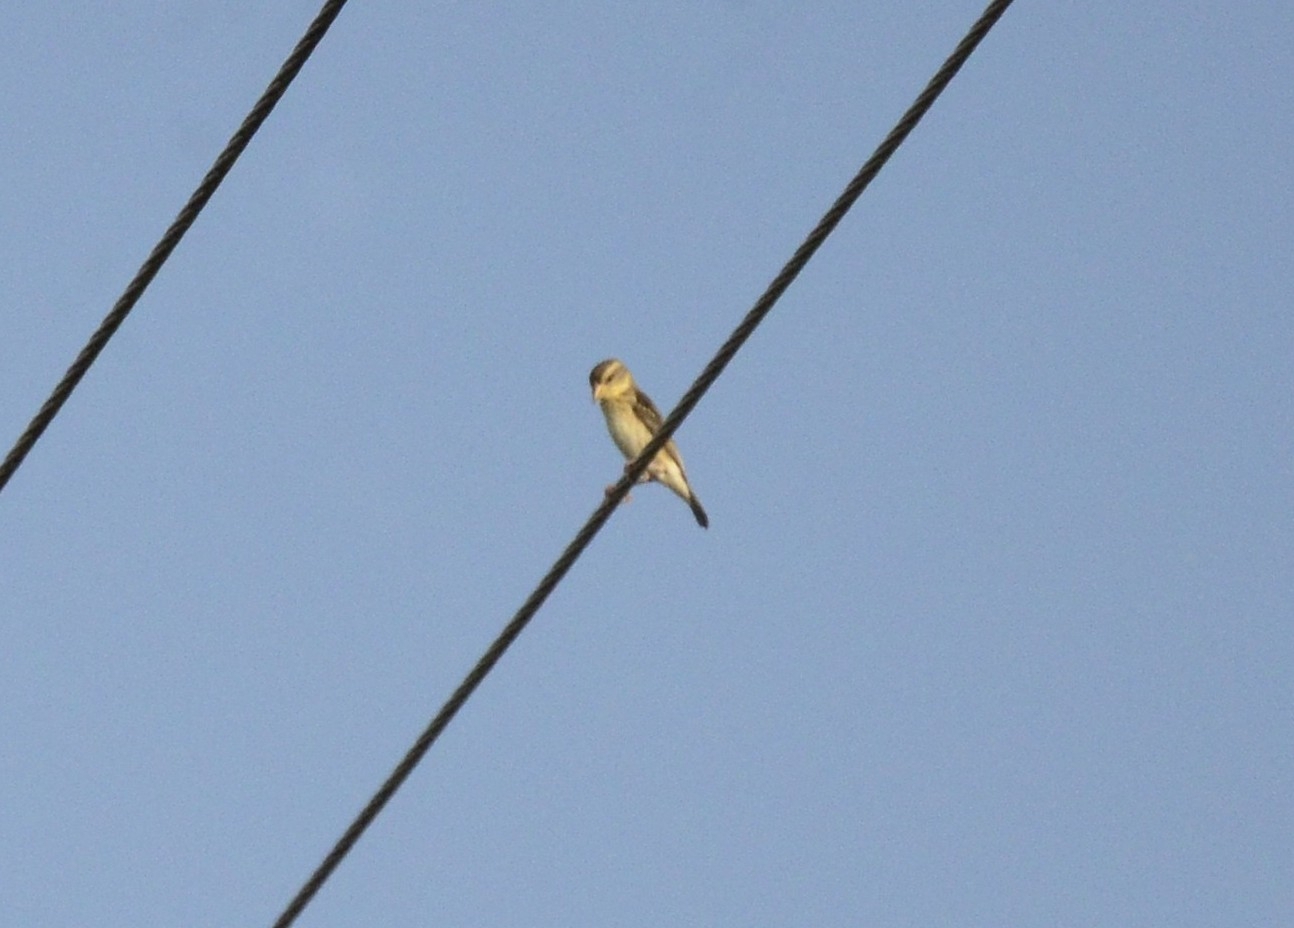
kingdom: Animalia
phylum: Chordata
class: Aves
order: Passeriformes
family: Ploceidae
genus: Ploceus
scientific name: Ploceus philippinus
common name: Baya weaver
